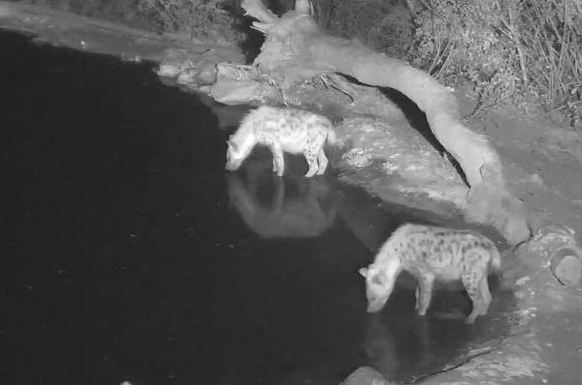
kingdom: Animalia
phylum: Chordata
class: Mammalia
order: Carnivora
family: Hyaenidae
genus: Crocuta
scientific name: Crocuta crocuta
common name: Spotted hyaena
